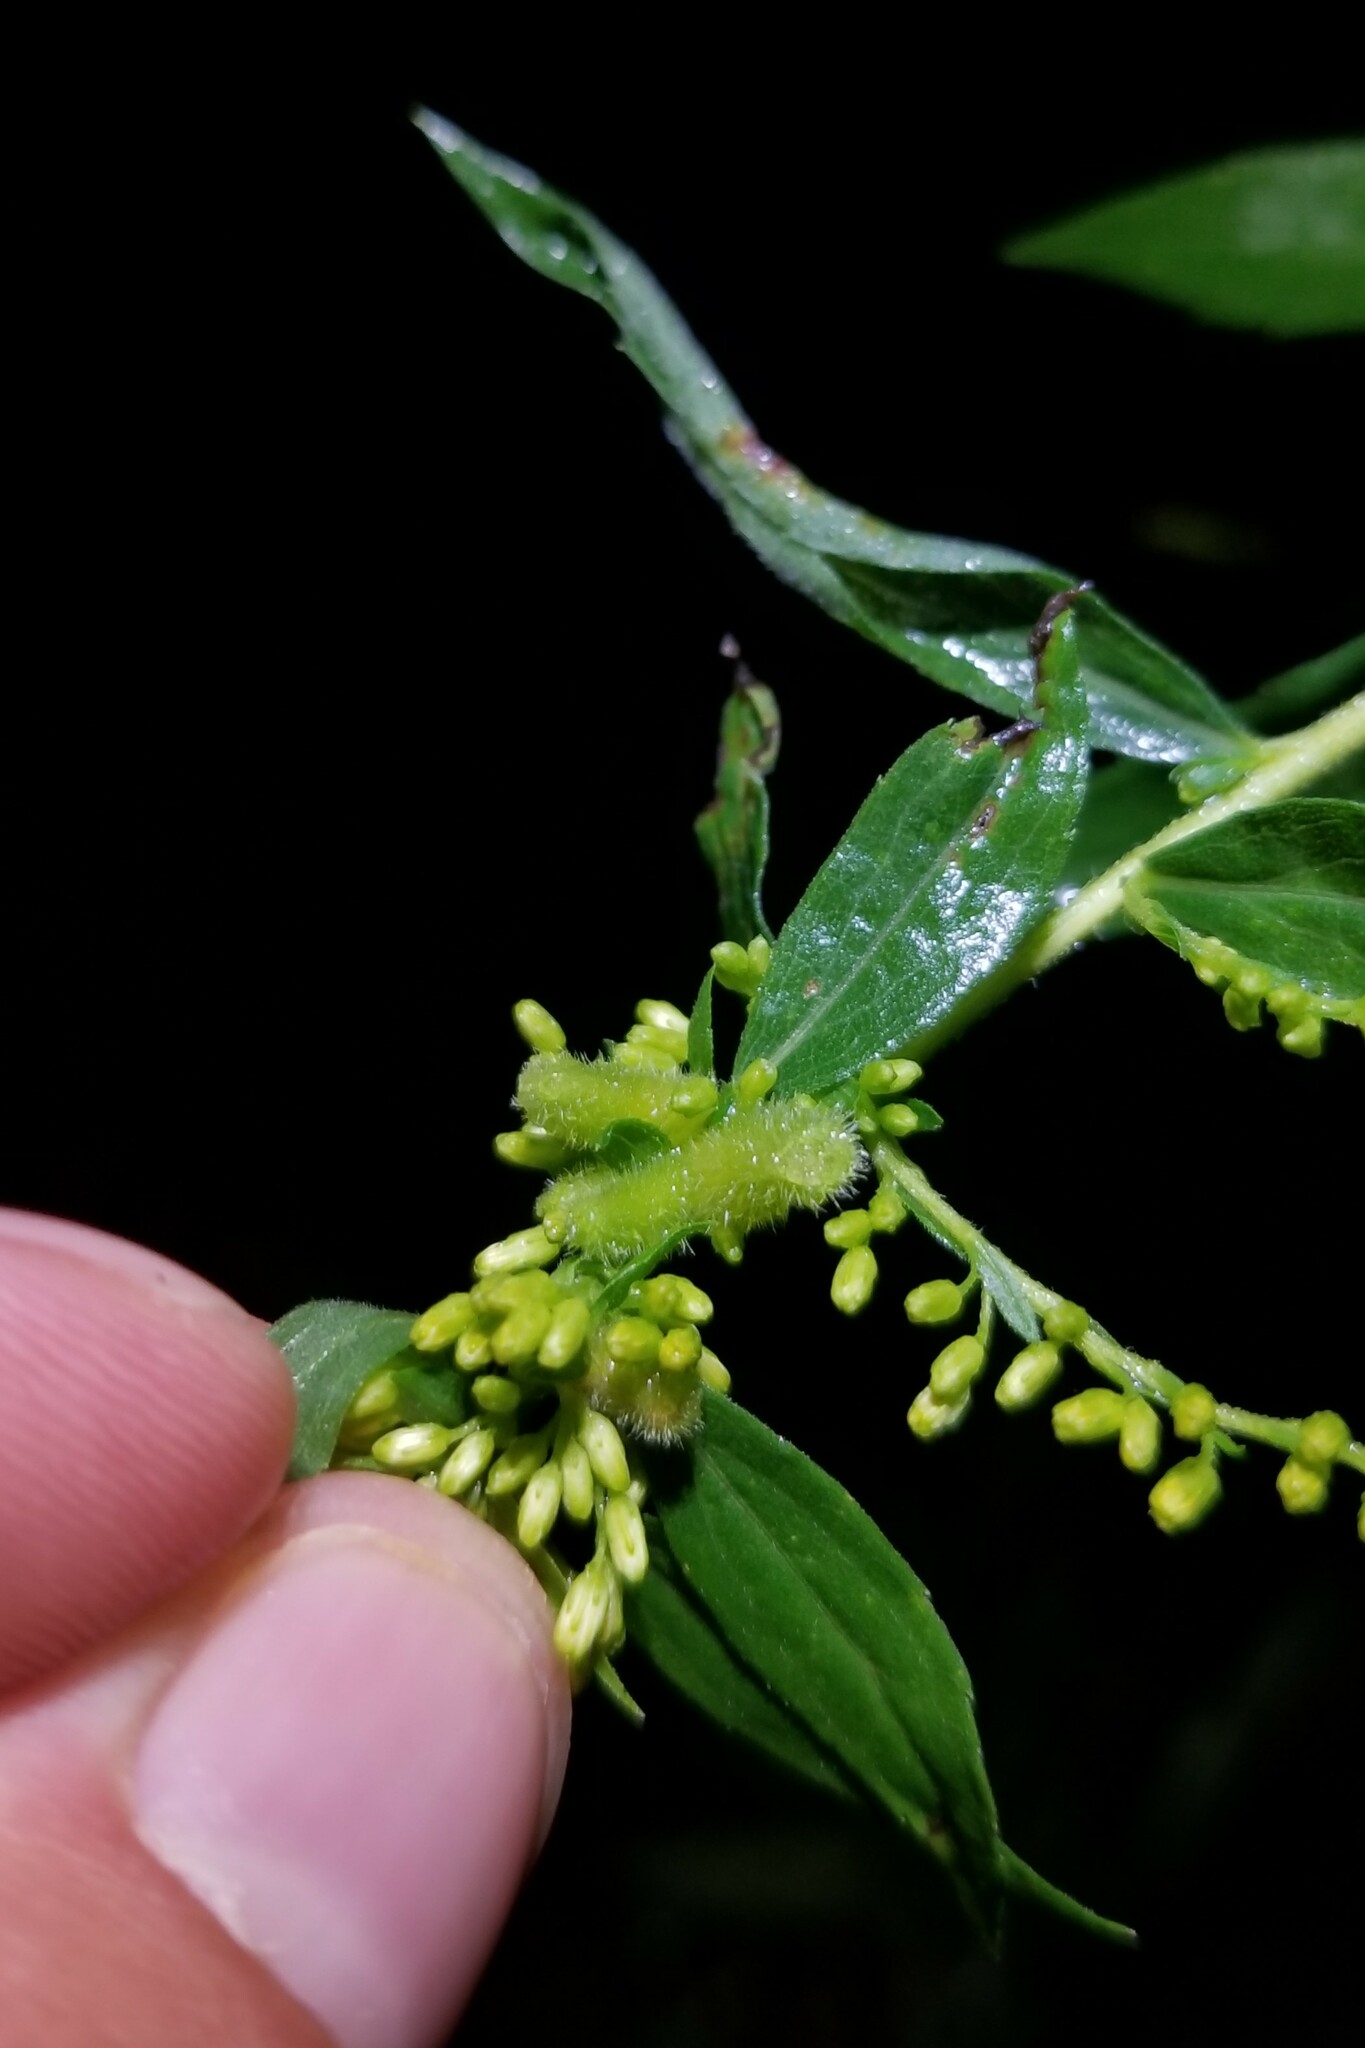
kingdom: Animalia
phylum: Arthropoda
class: Insecta
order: Diptera
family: Cecidomyiidae
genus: Rhopalomyia
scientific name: Rhopalomyia anthophila
